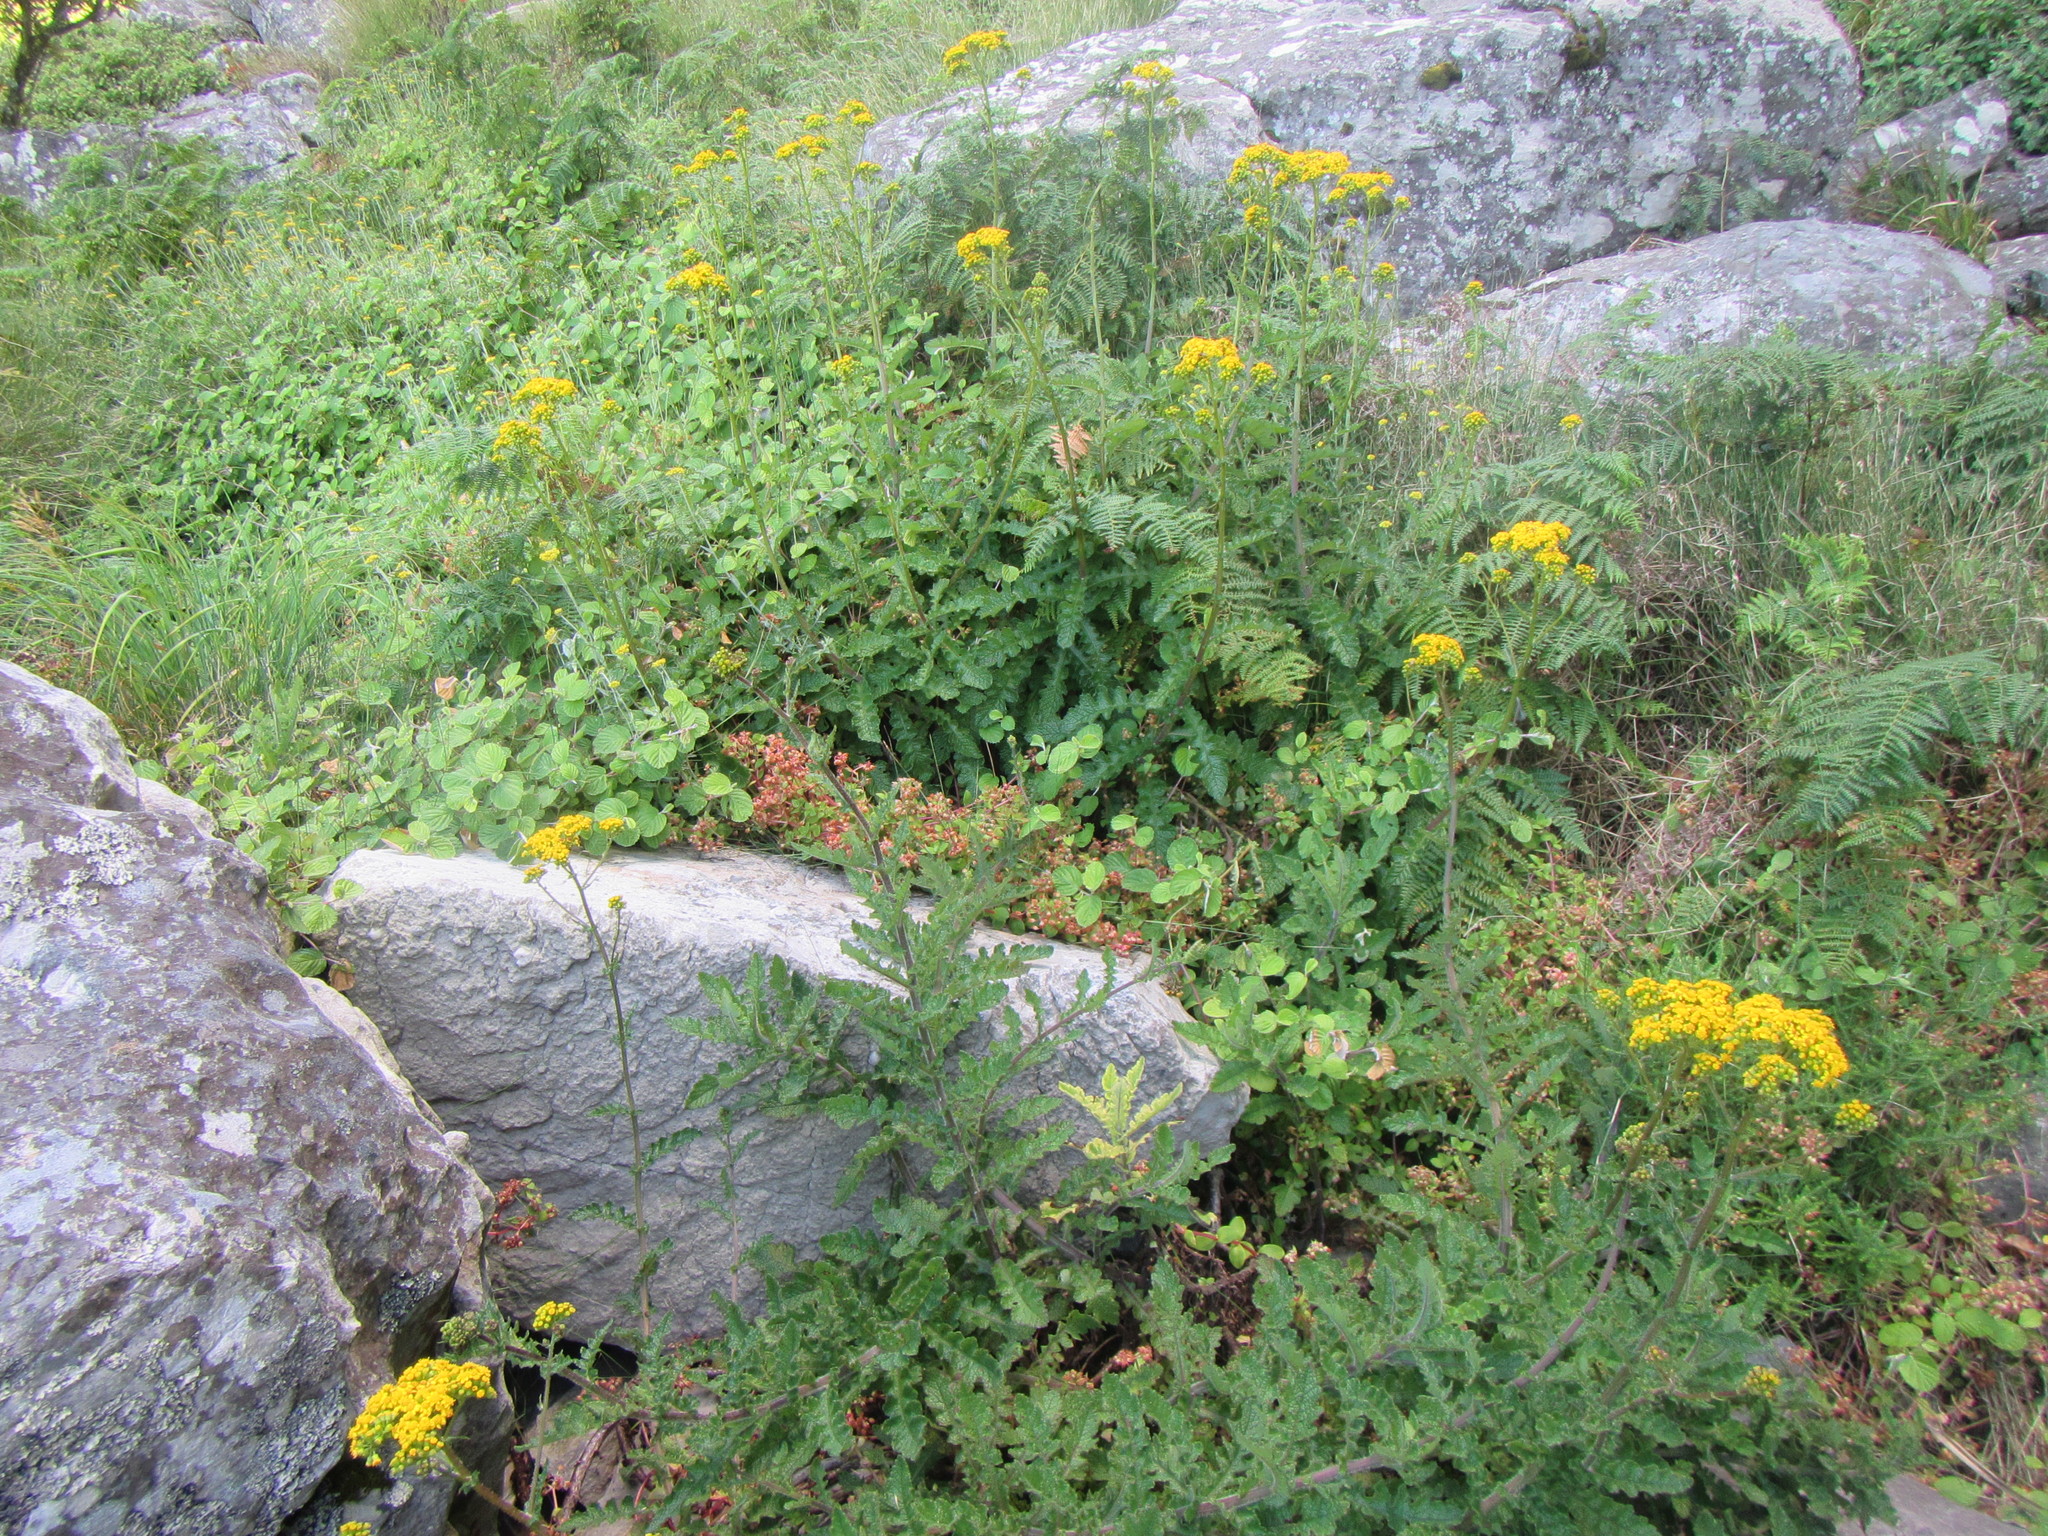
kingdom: Plantae
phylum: Tracheophyta
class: Magnoliopsida
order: Asterales
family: Asteraceae
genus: Senecio
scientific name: Senecio variifolius
